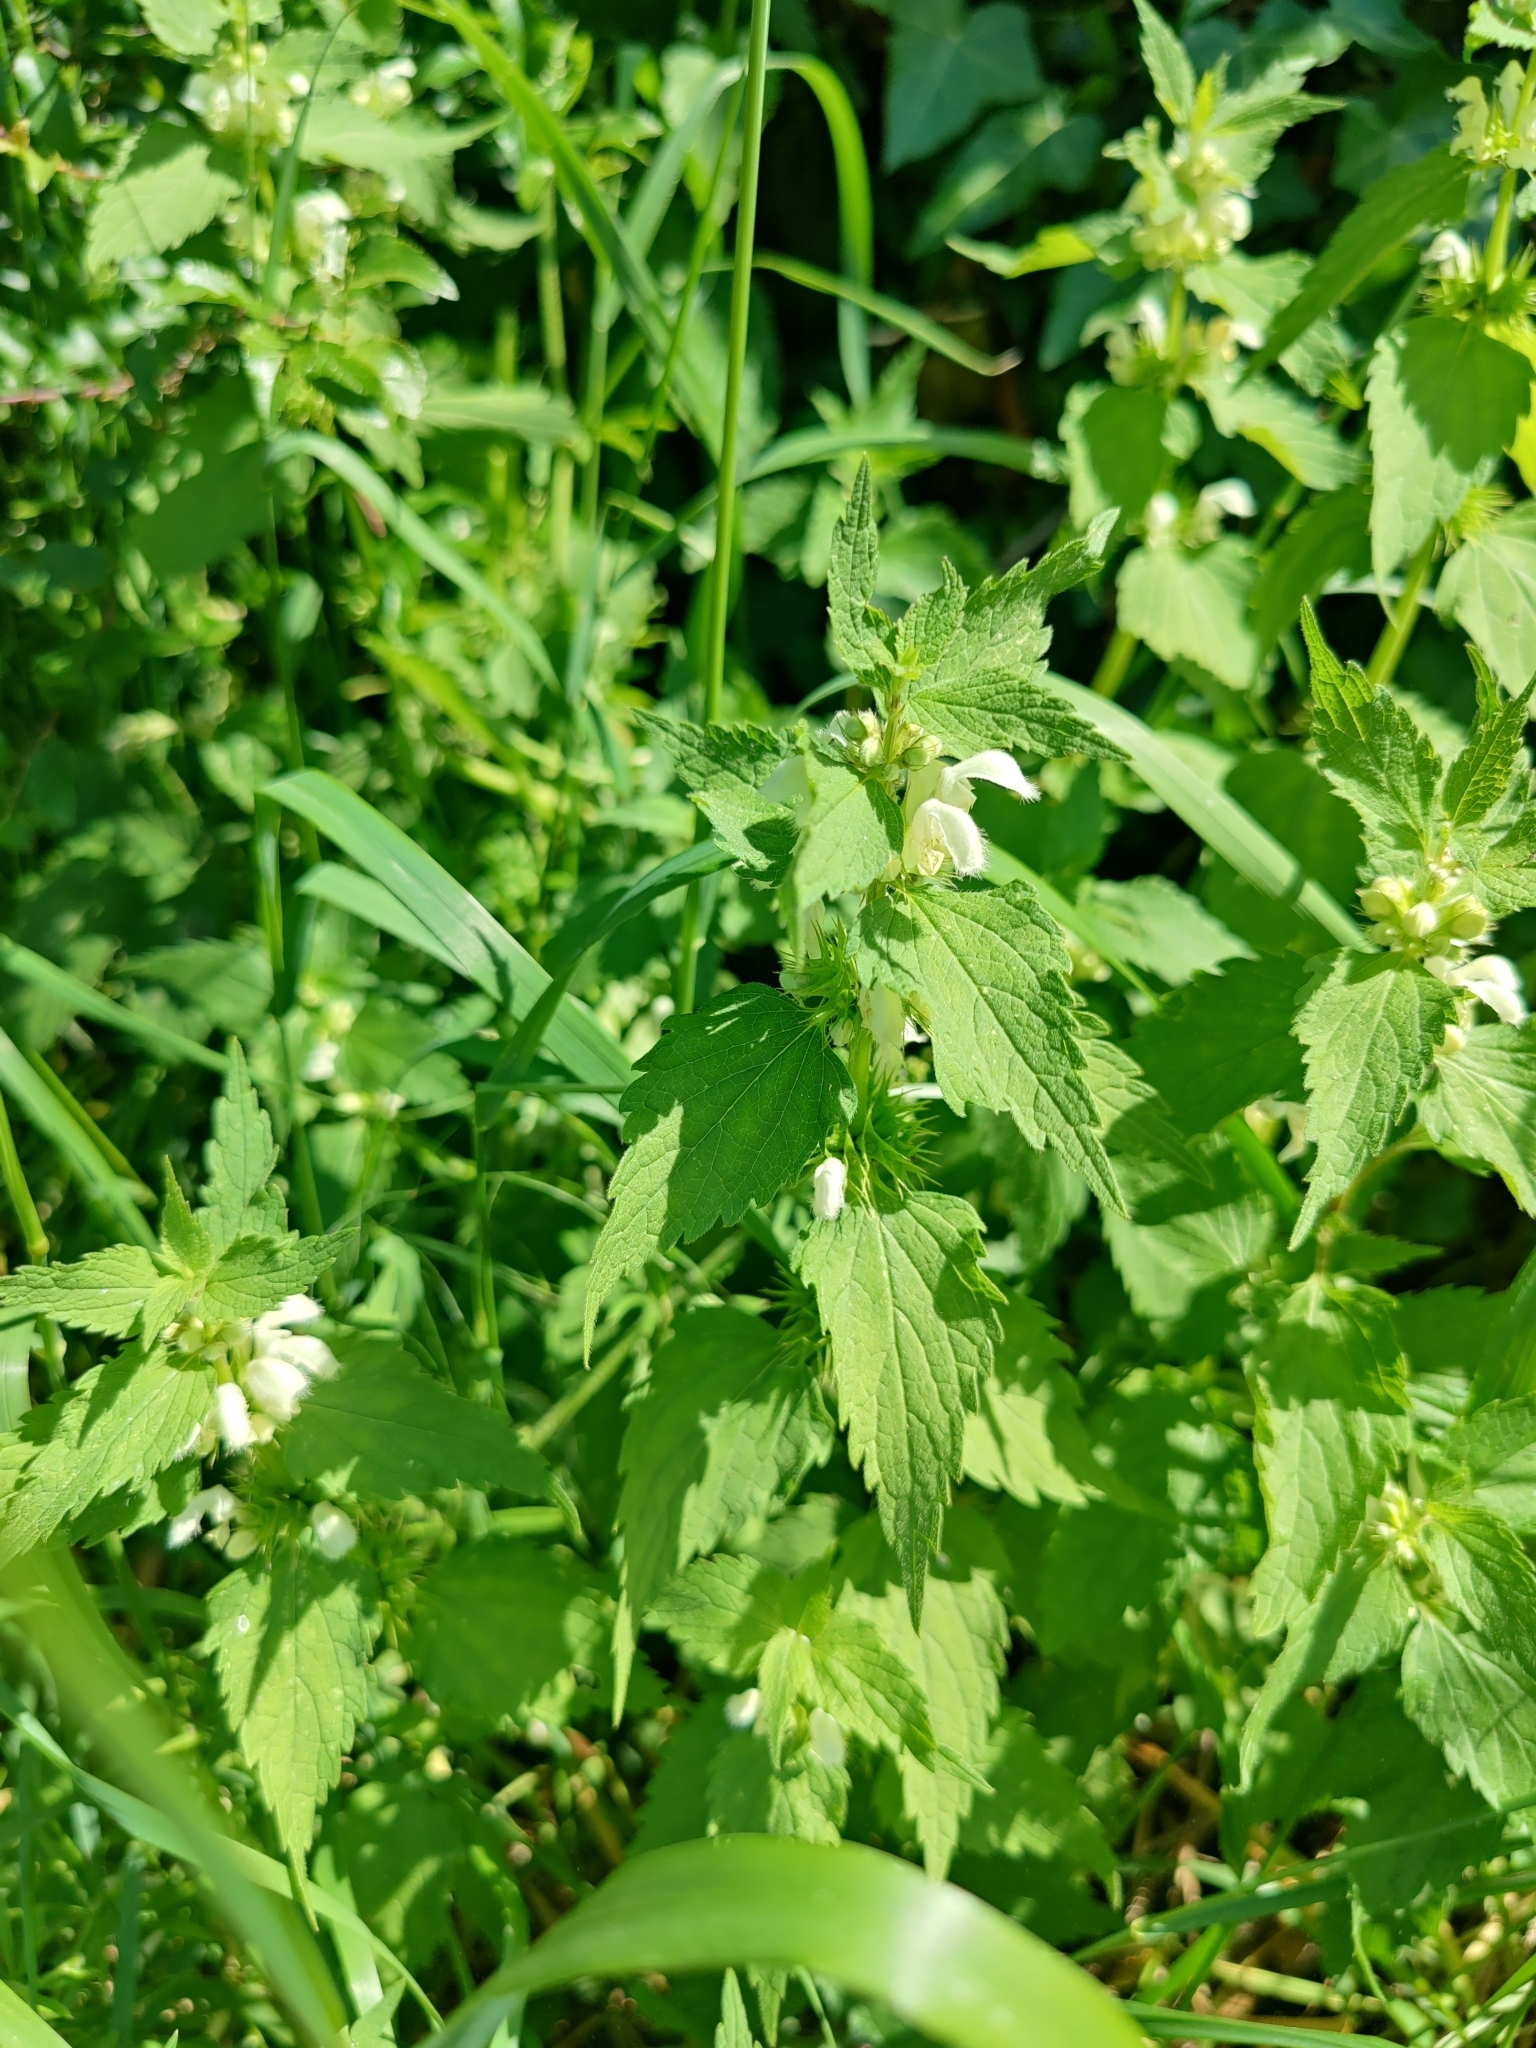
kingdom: Plantae
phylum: Tracheophyta
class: Magnoliopsida
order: Lamiales
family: Lamiaceae
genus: Lamium
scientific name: Lamium album
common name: White dead-nettle
